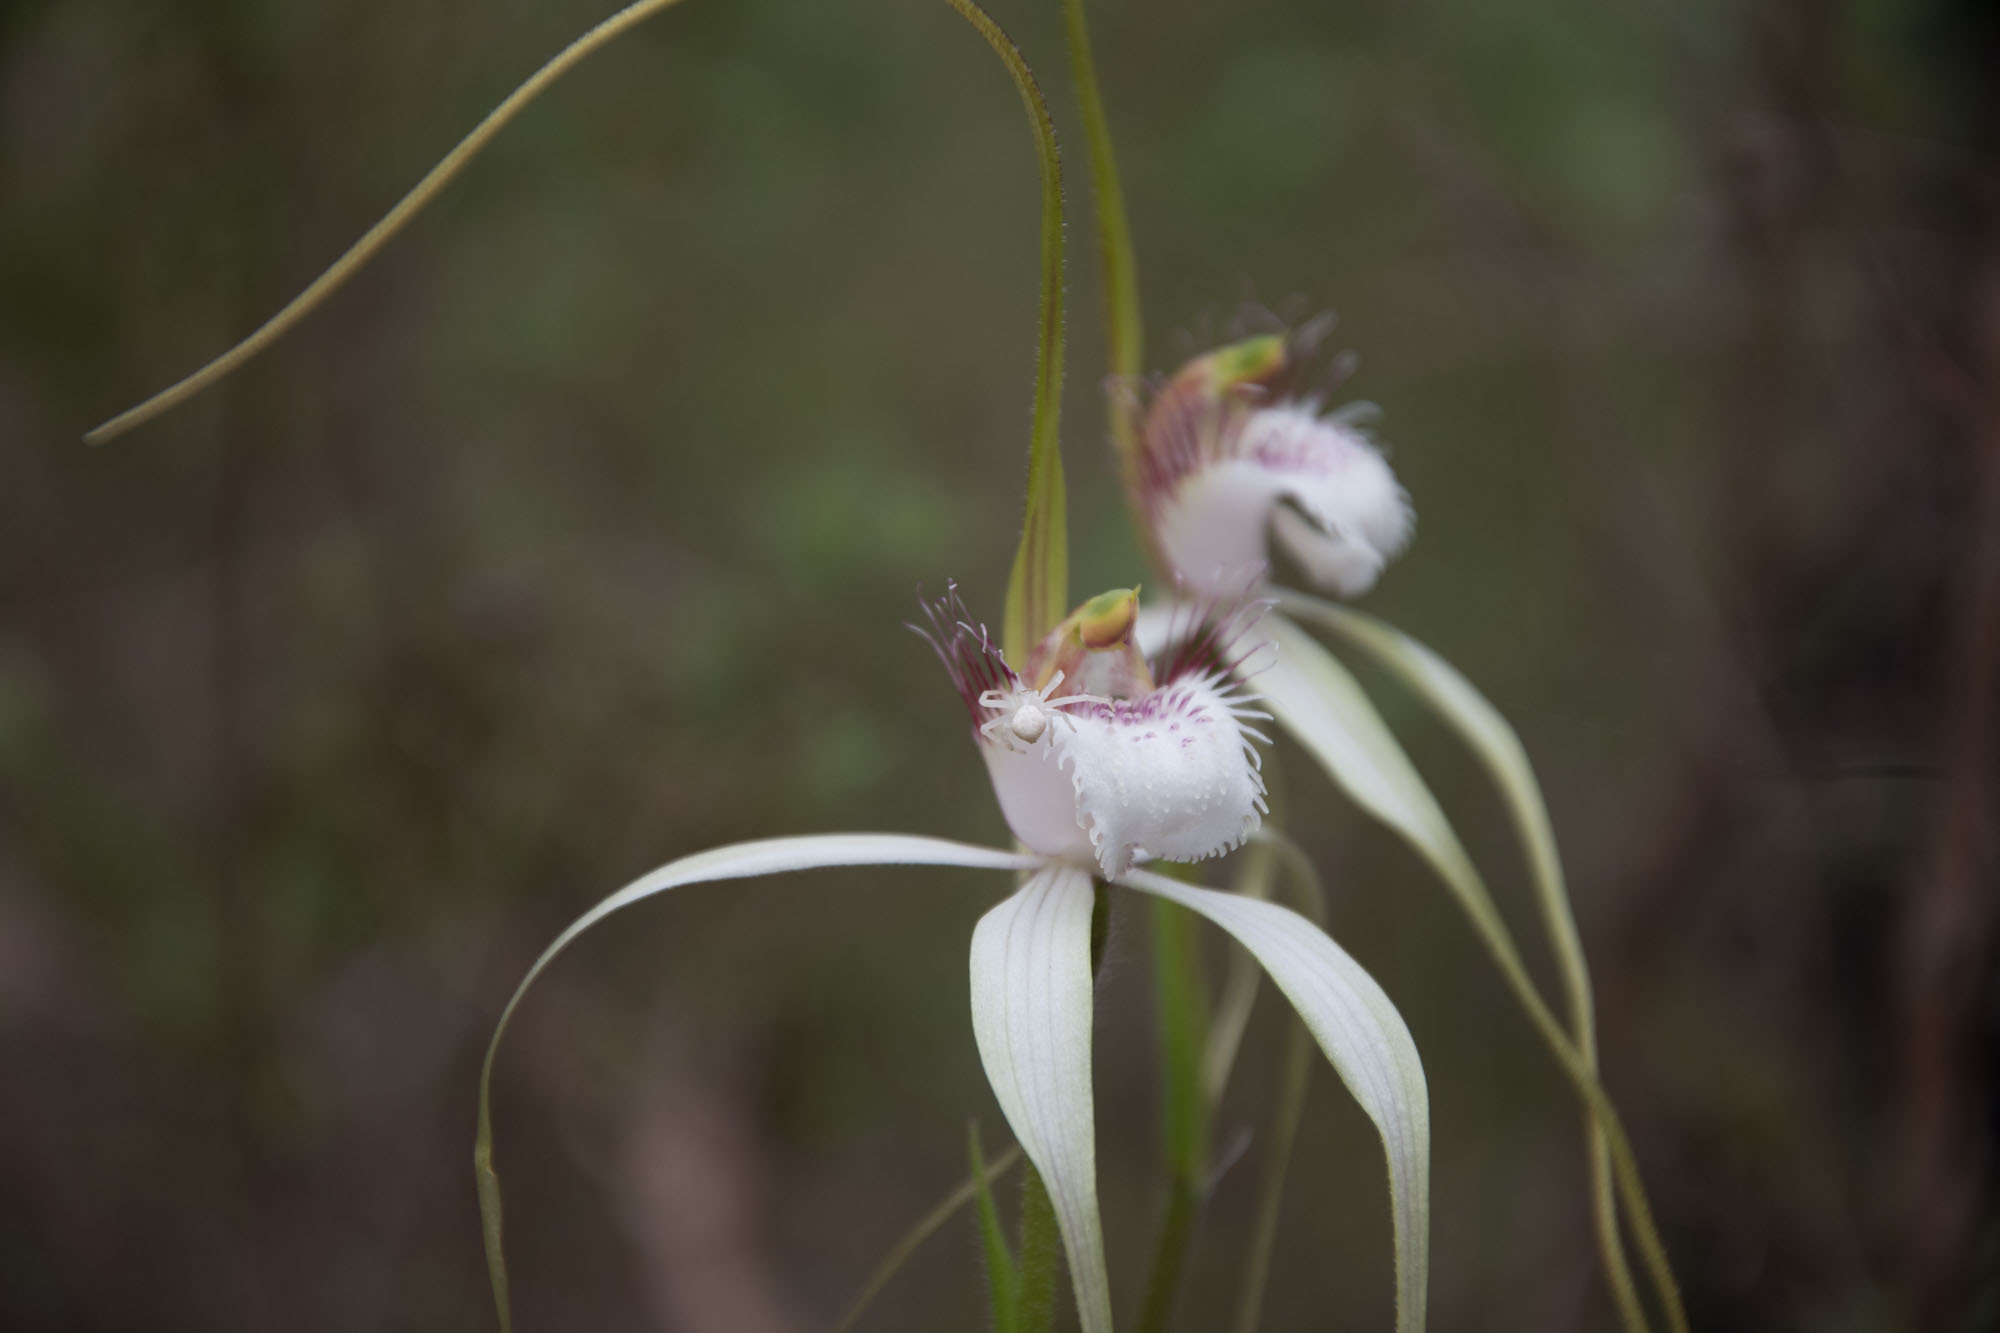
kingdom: Plantae
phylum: Tracheophyta
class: Liliopsida
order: Asparagales
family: Orchidaceae
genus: Caladenia
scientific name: Caladenia speciosa
